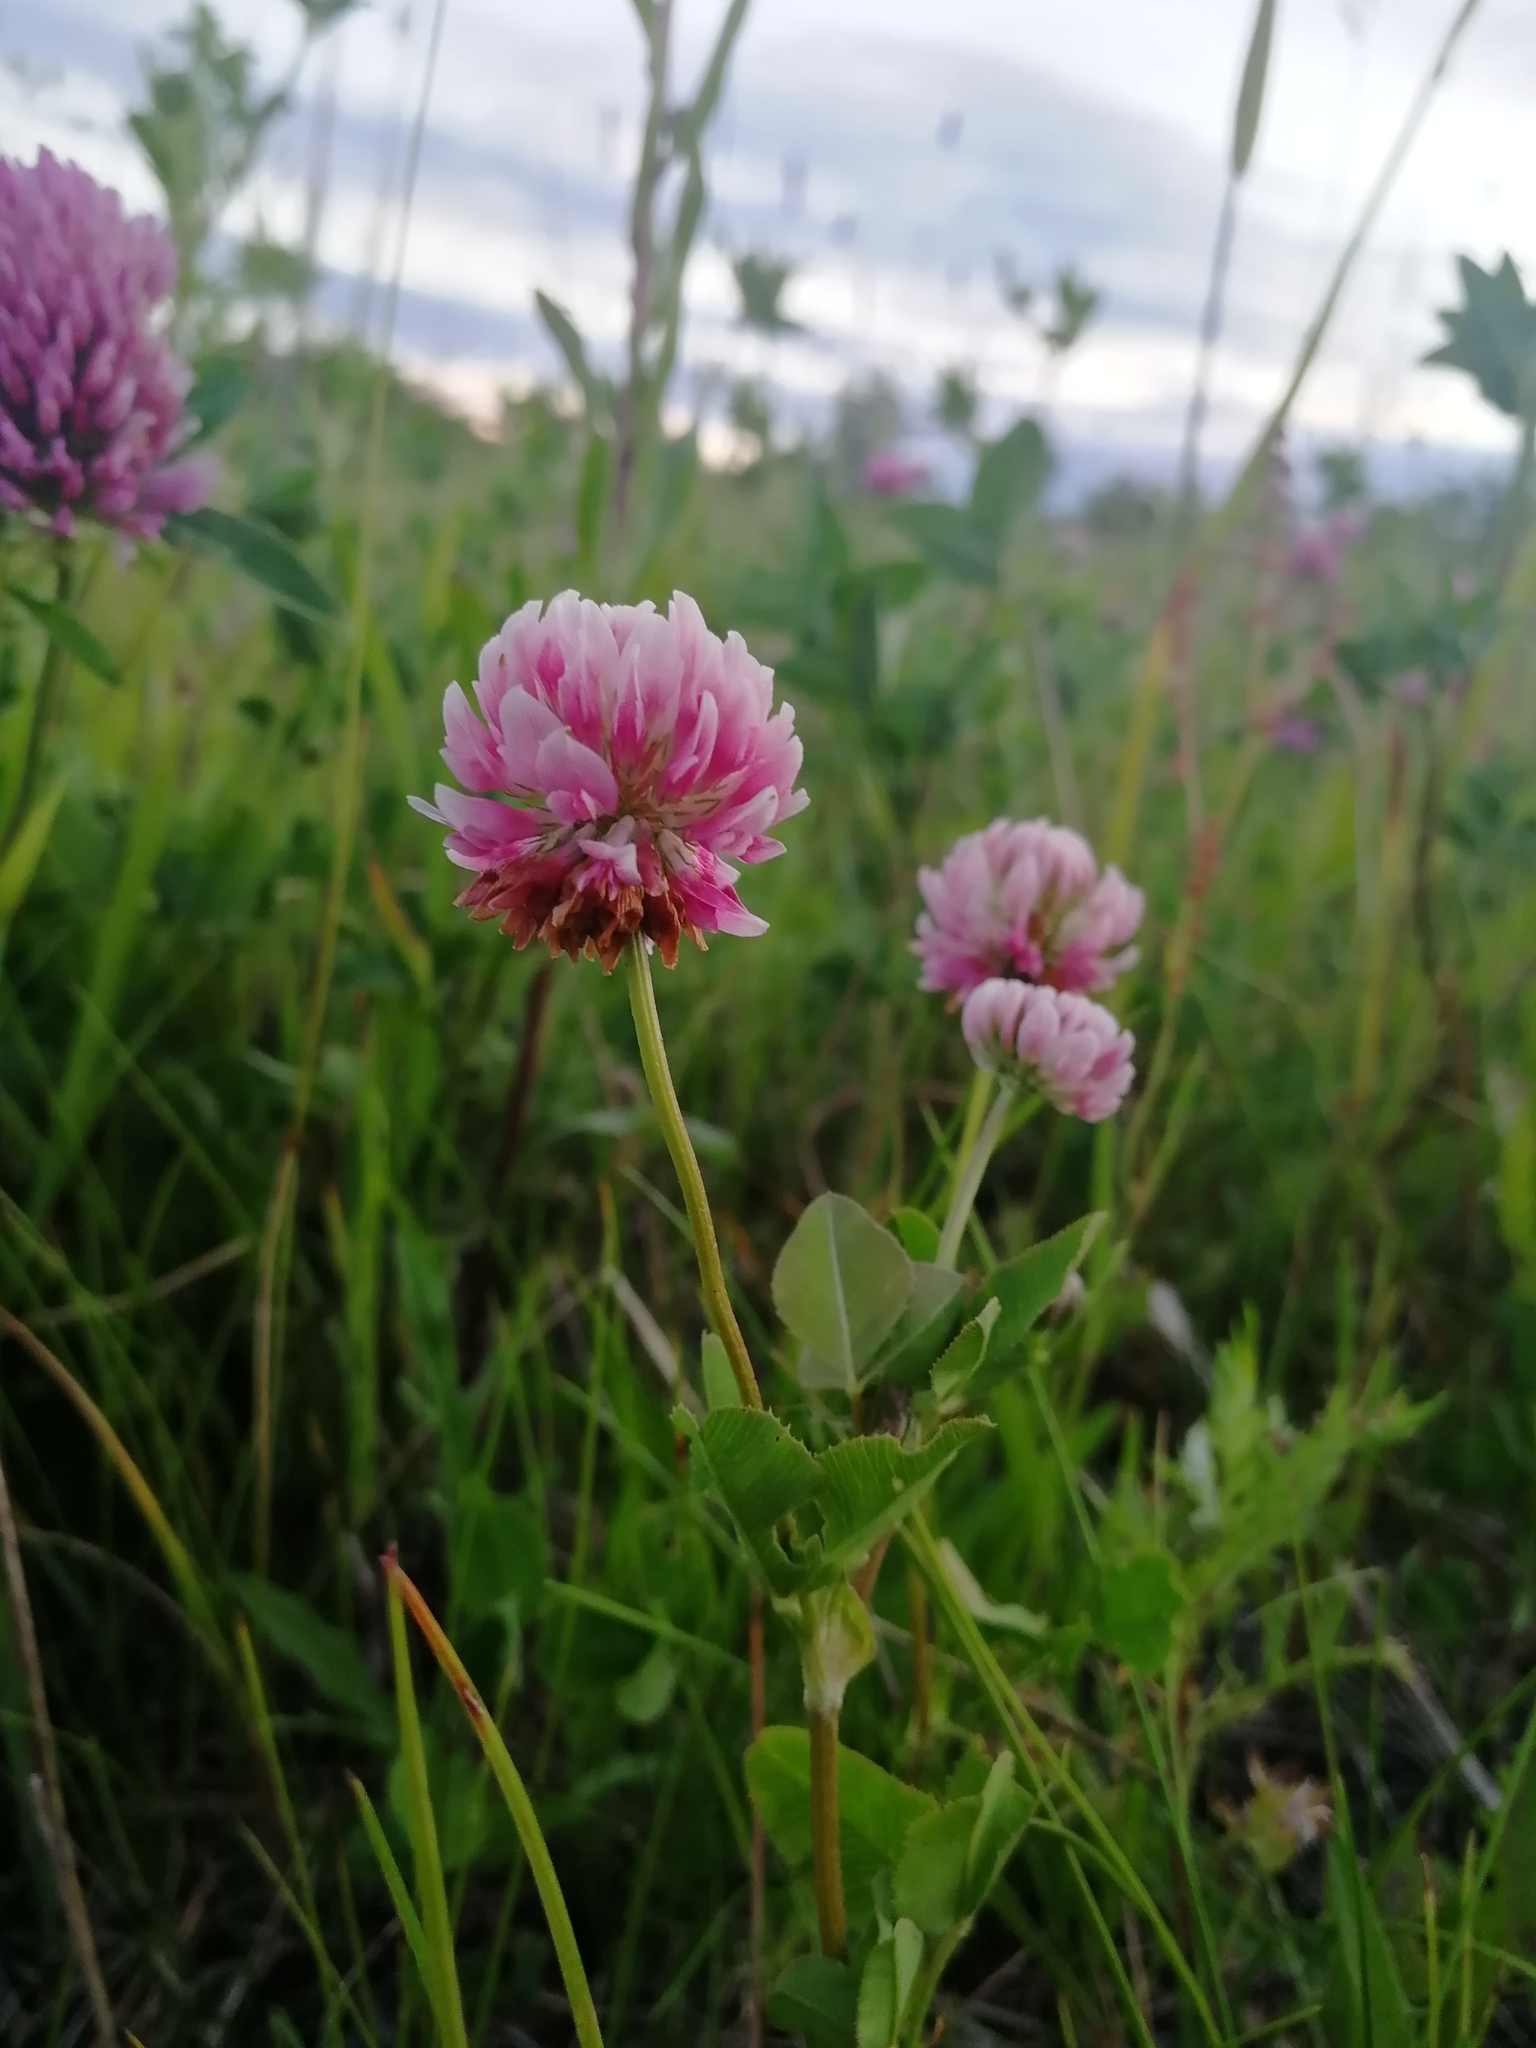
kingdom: Plantae
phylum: Tracheophyta
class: Magnoliopsida
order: Fabales
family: Fabaceae
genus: Trifolium
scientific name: Trifolium hybridum
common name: Alsike clover
